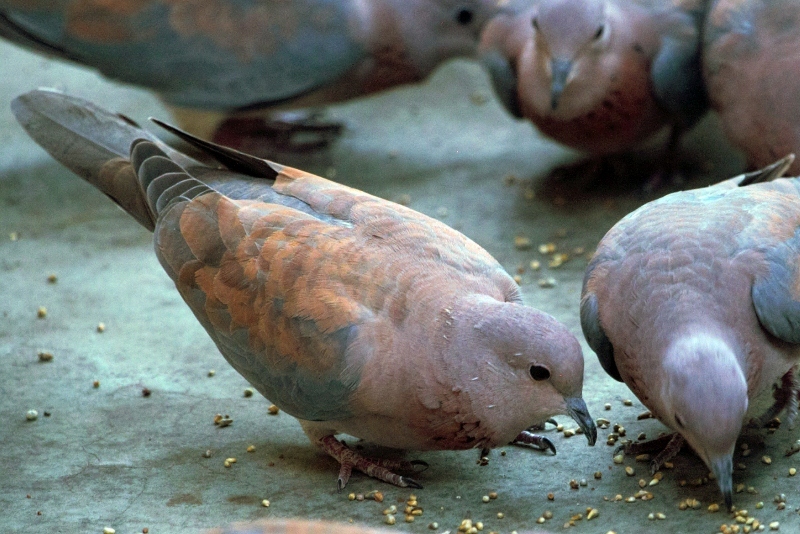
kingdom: Animalia
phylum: Chordata
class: Aves
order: Columbiformes
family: Columbidae
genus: Spilopelia
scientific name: Spilopelia senegalensis
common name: Laughing dove
